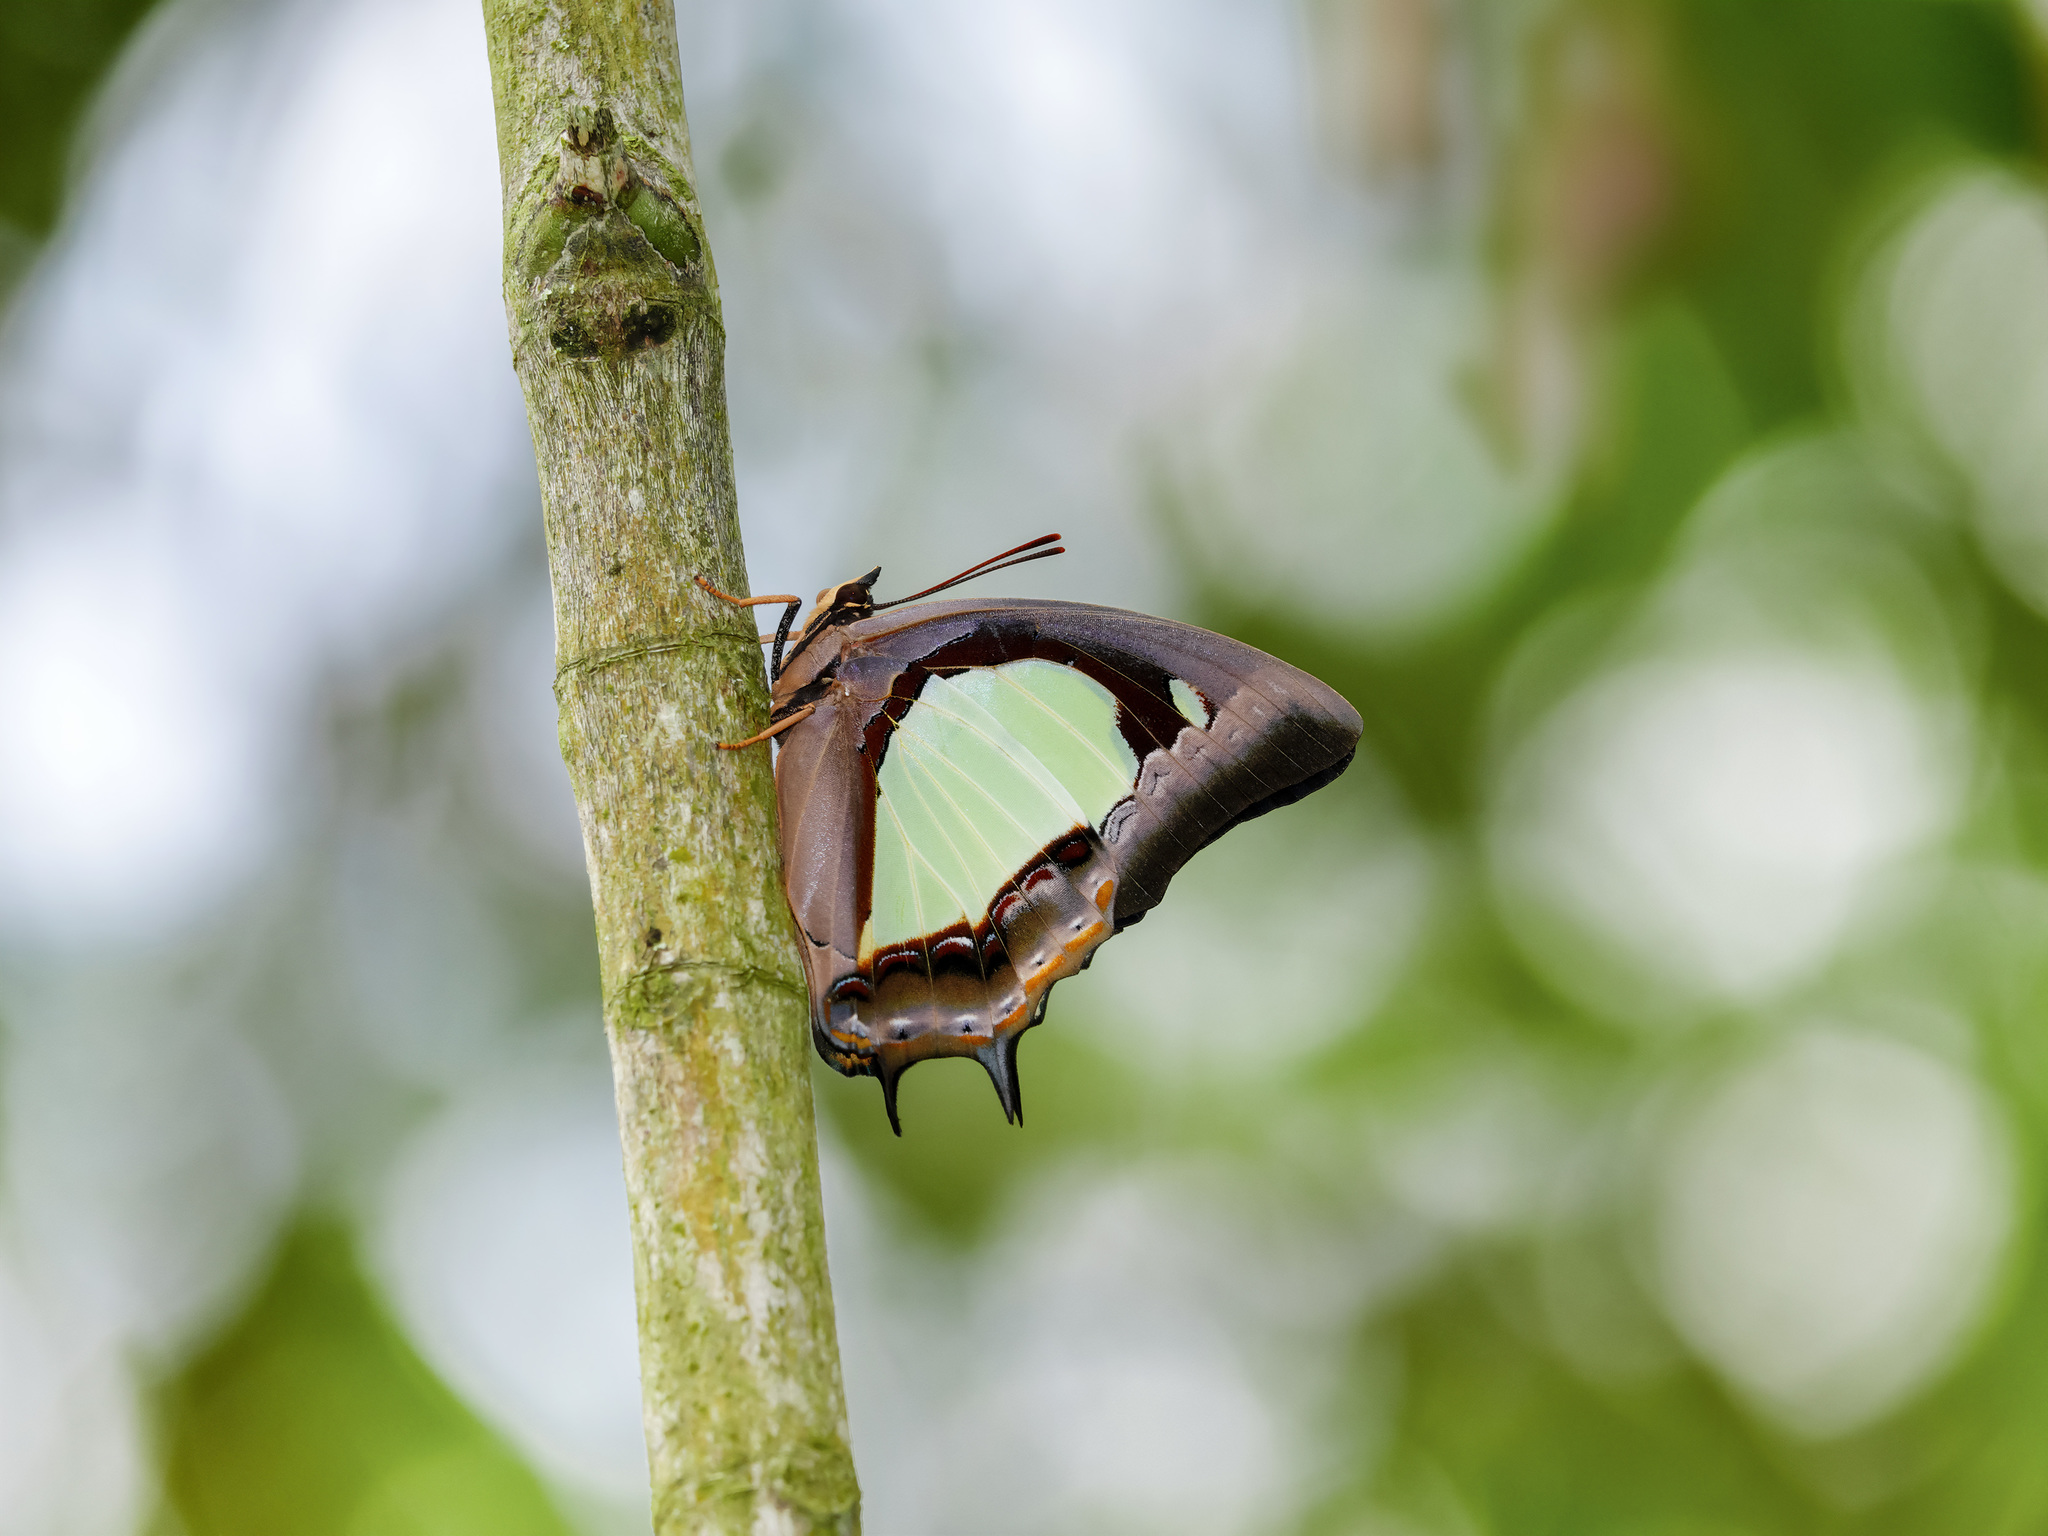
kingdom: Animalia
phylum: Arthropoda
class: Insecta
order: Lepidoptera
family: Nymphalidae
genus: Polyura
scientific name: Polyura moori
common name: Malayan nawab
